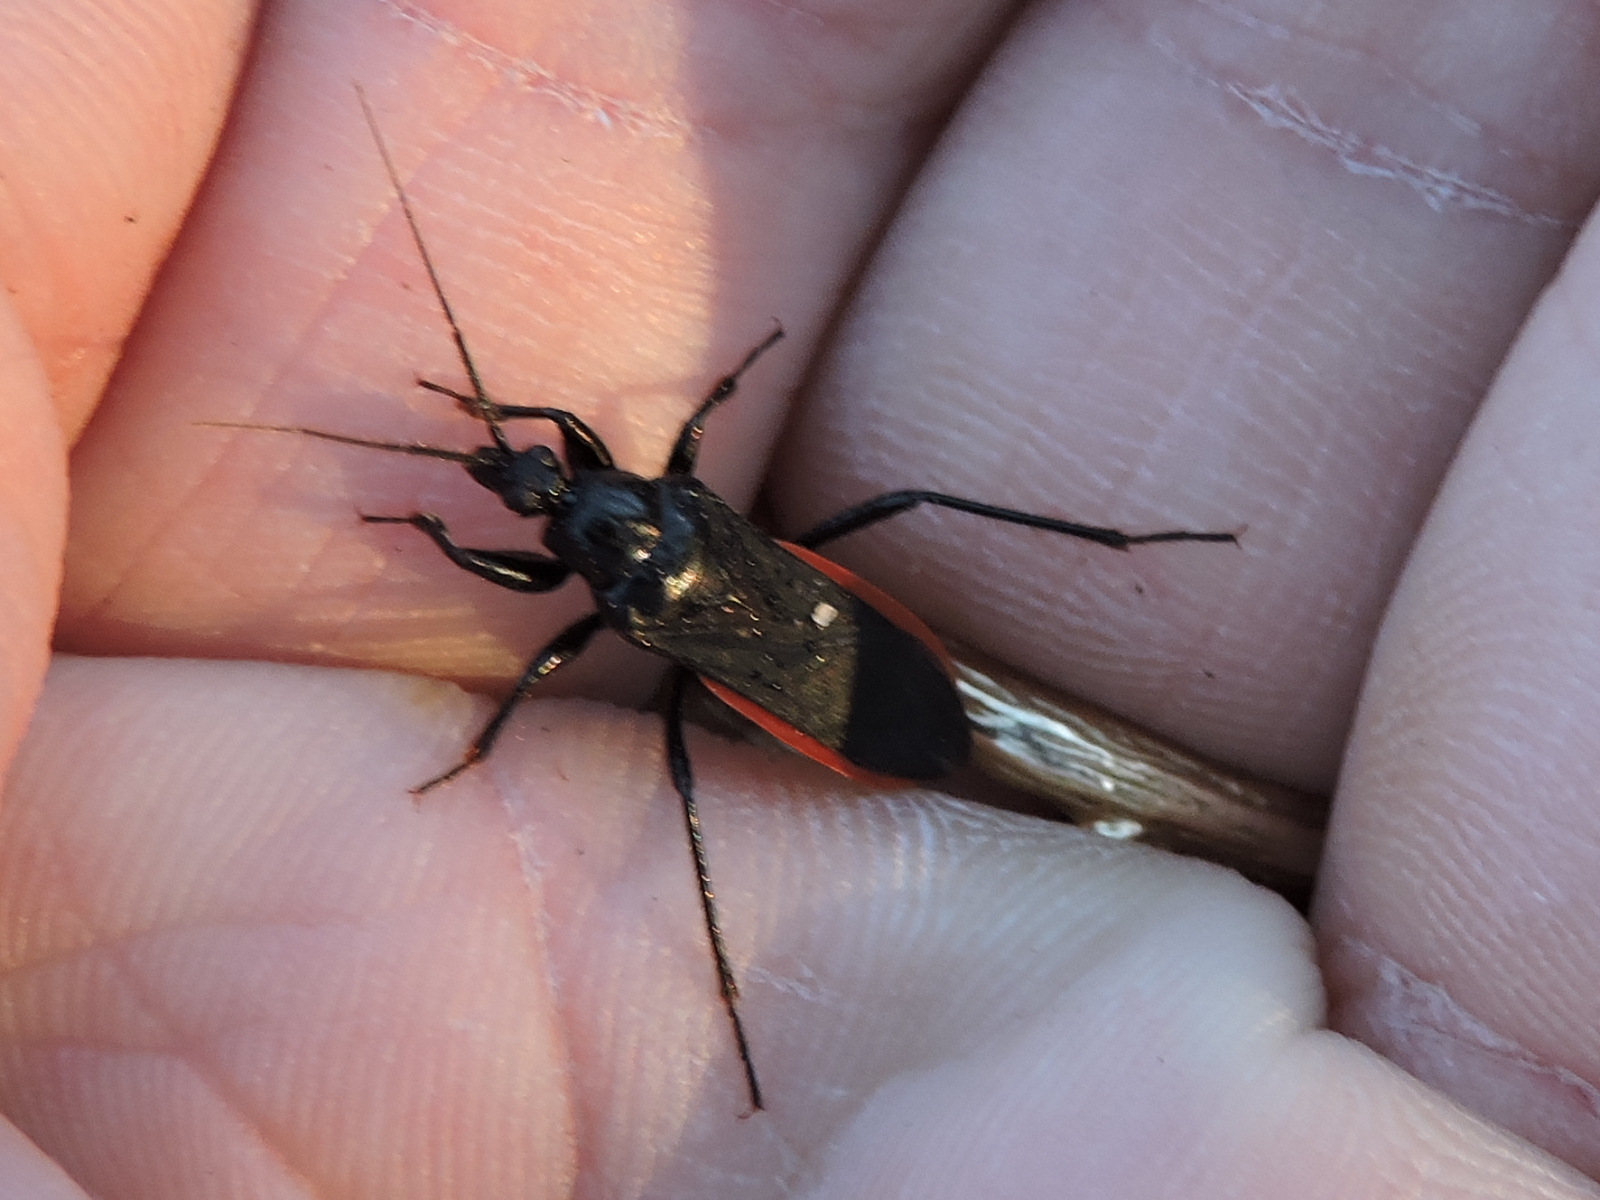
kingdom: Animalia
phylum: Arthropoda
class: Insecta
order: Hemiptera
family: Reduviidae
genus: Melanolestes
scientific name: Melanolestes picipes
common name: Assassin bug
